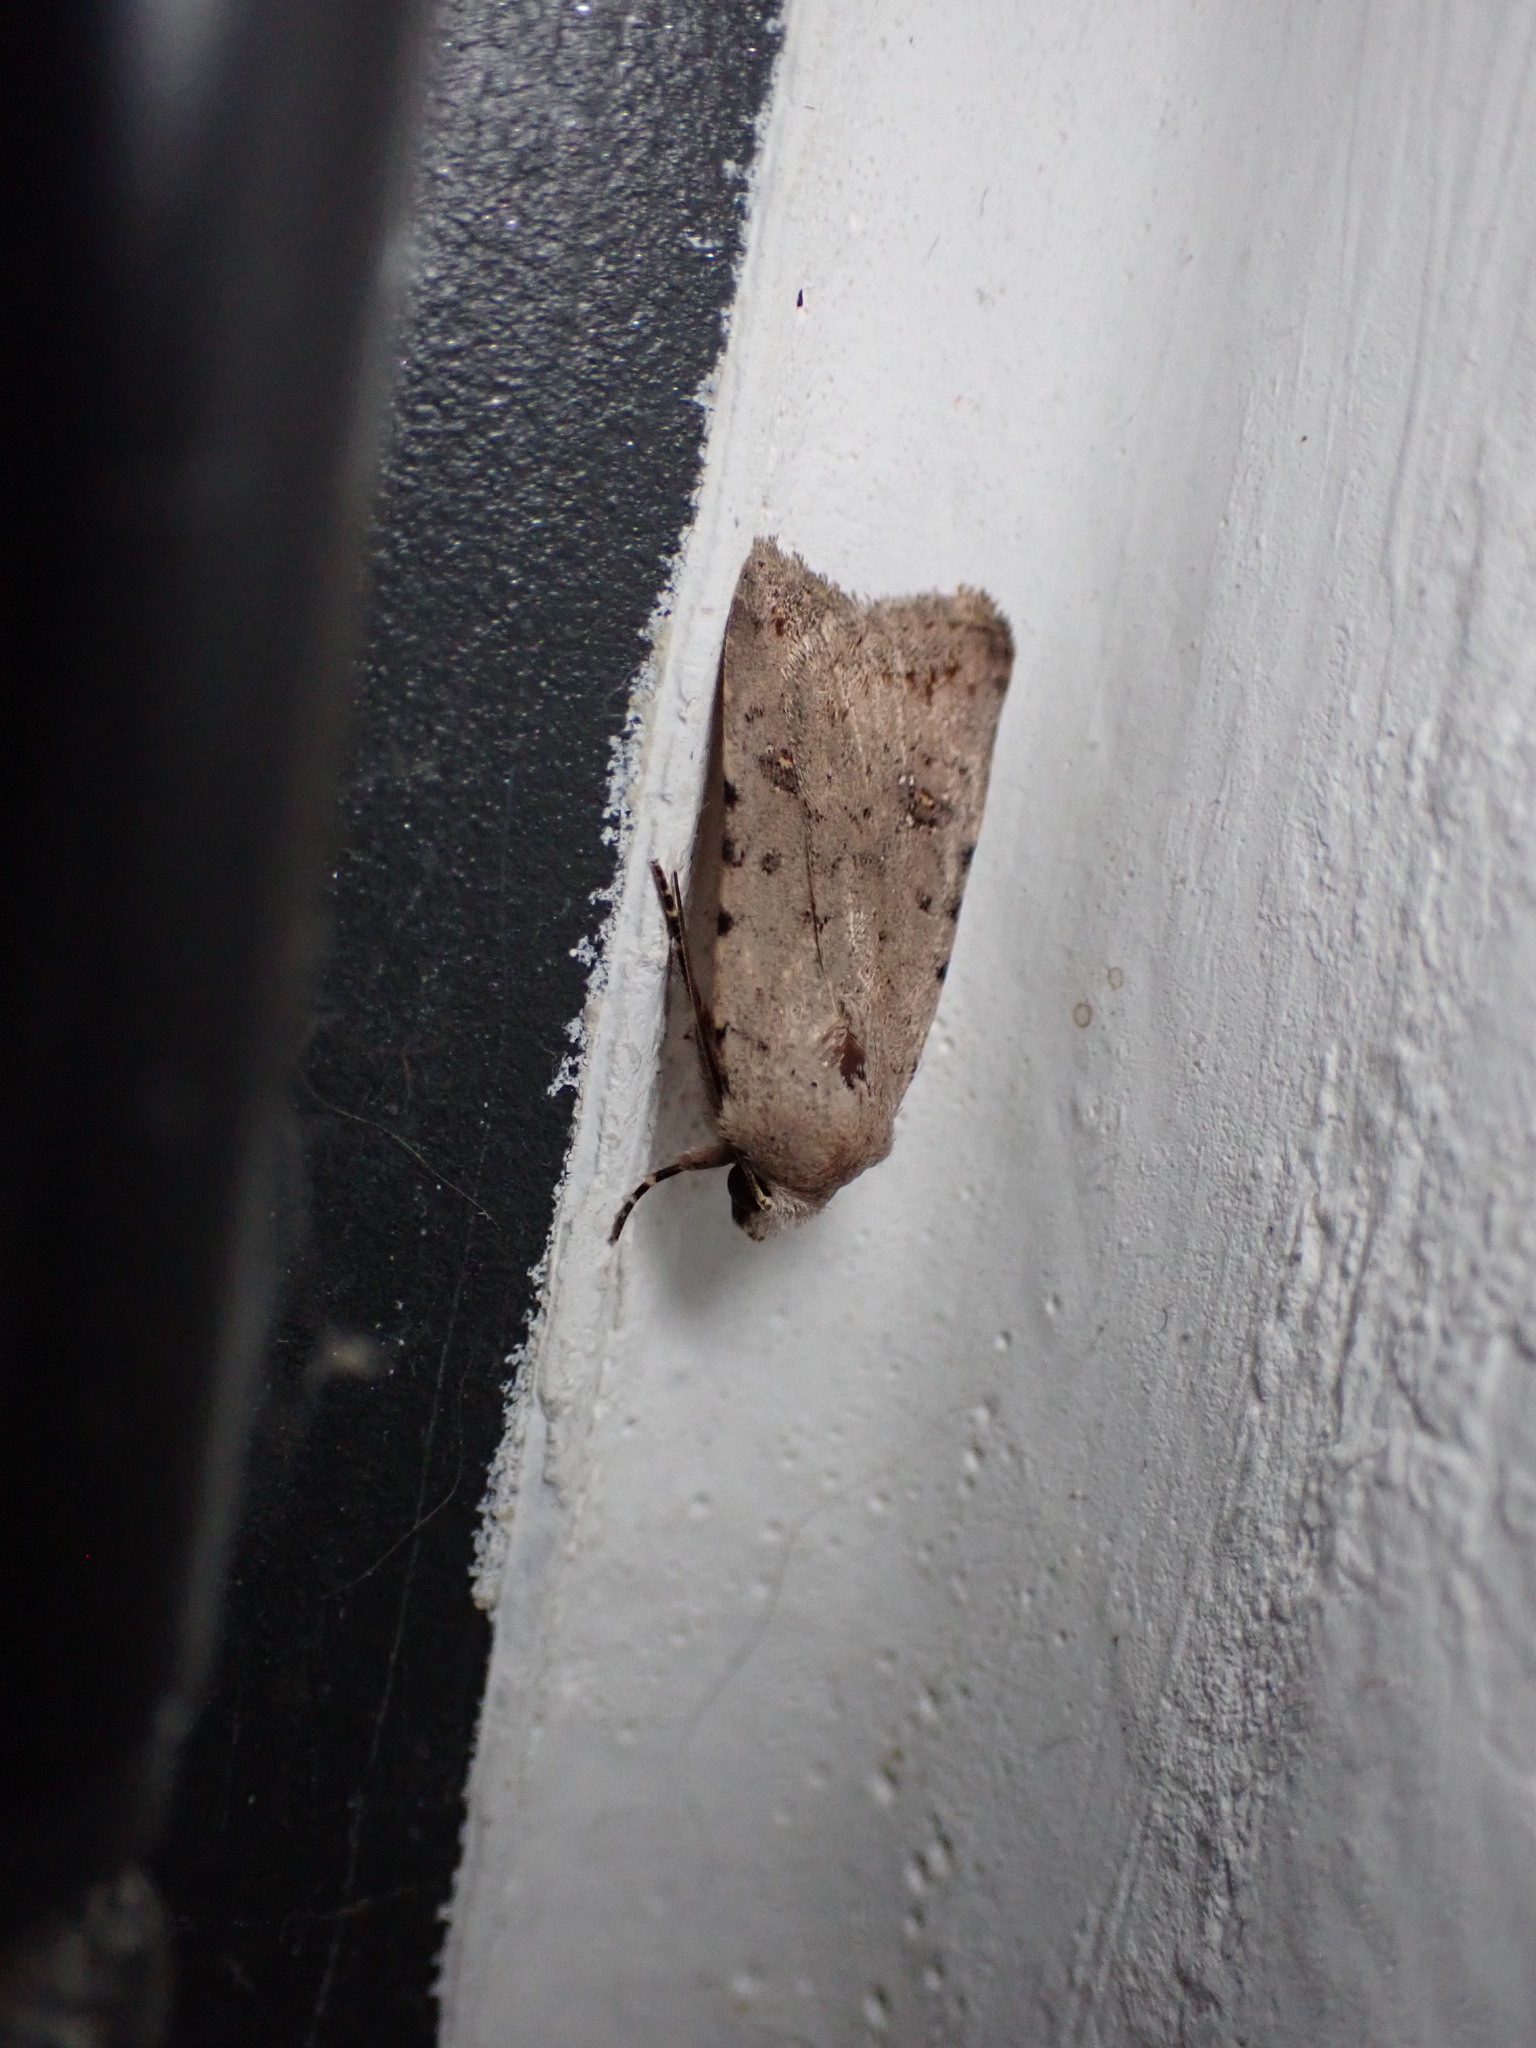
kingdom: Animalia
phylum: Arthropoda
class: Insecta
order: Lepidoptera
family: Noctuidae
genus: Caradrina
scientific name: Caradrina clavipalpis
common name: Pale mottled willow
